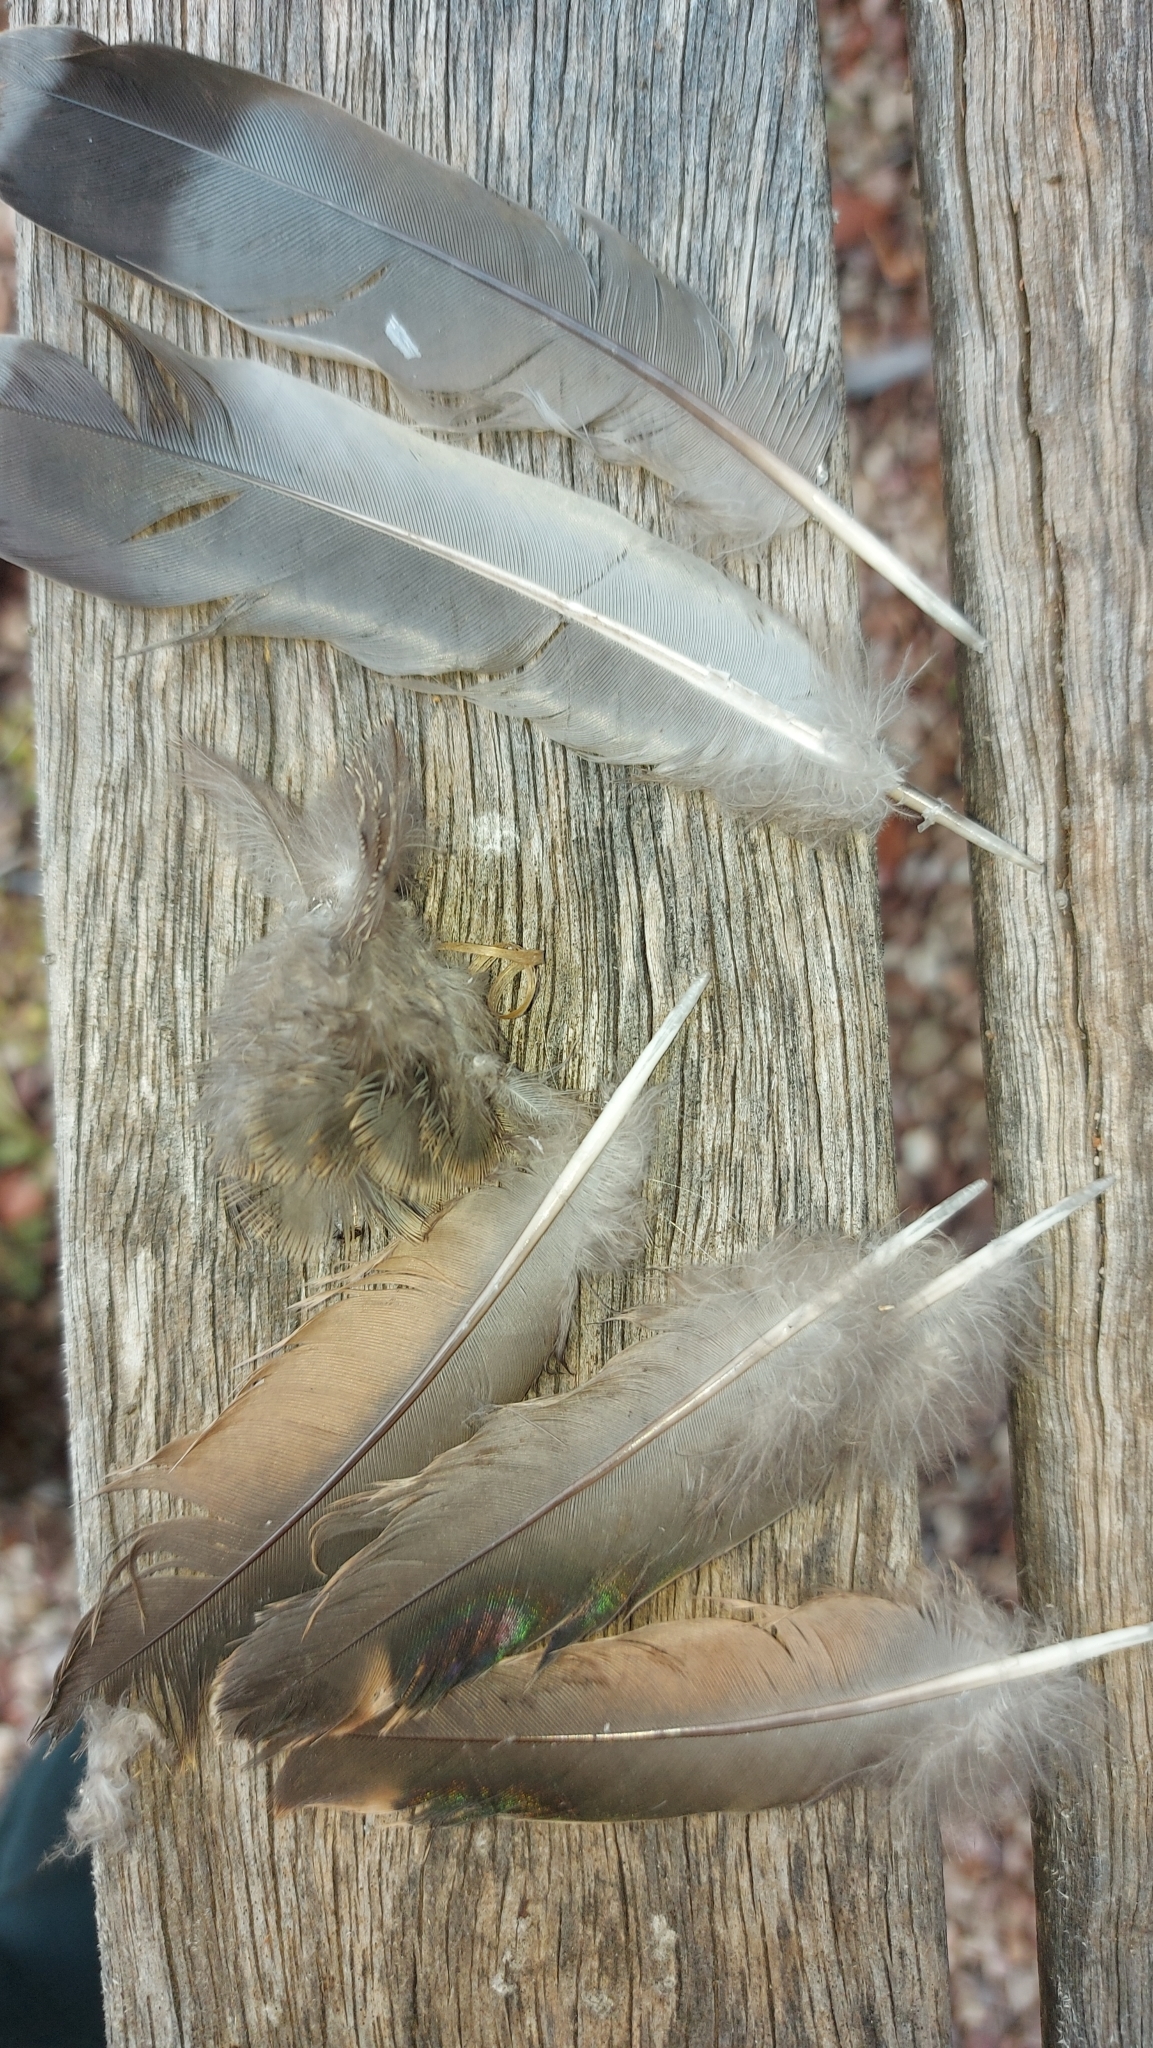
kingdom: Animalia
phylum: Chordata
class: Aves
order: Columbiformes
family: Columbidae
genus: Phaps
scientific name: Phaps chalcoptera
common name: Common bronzewing
